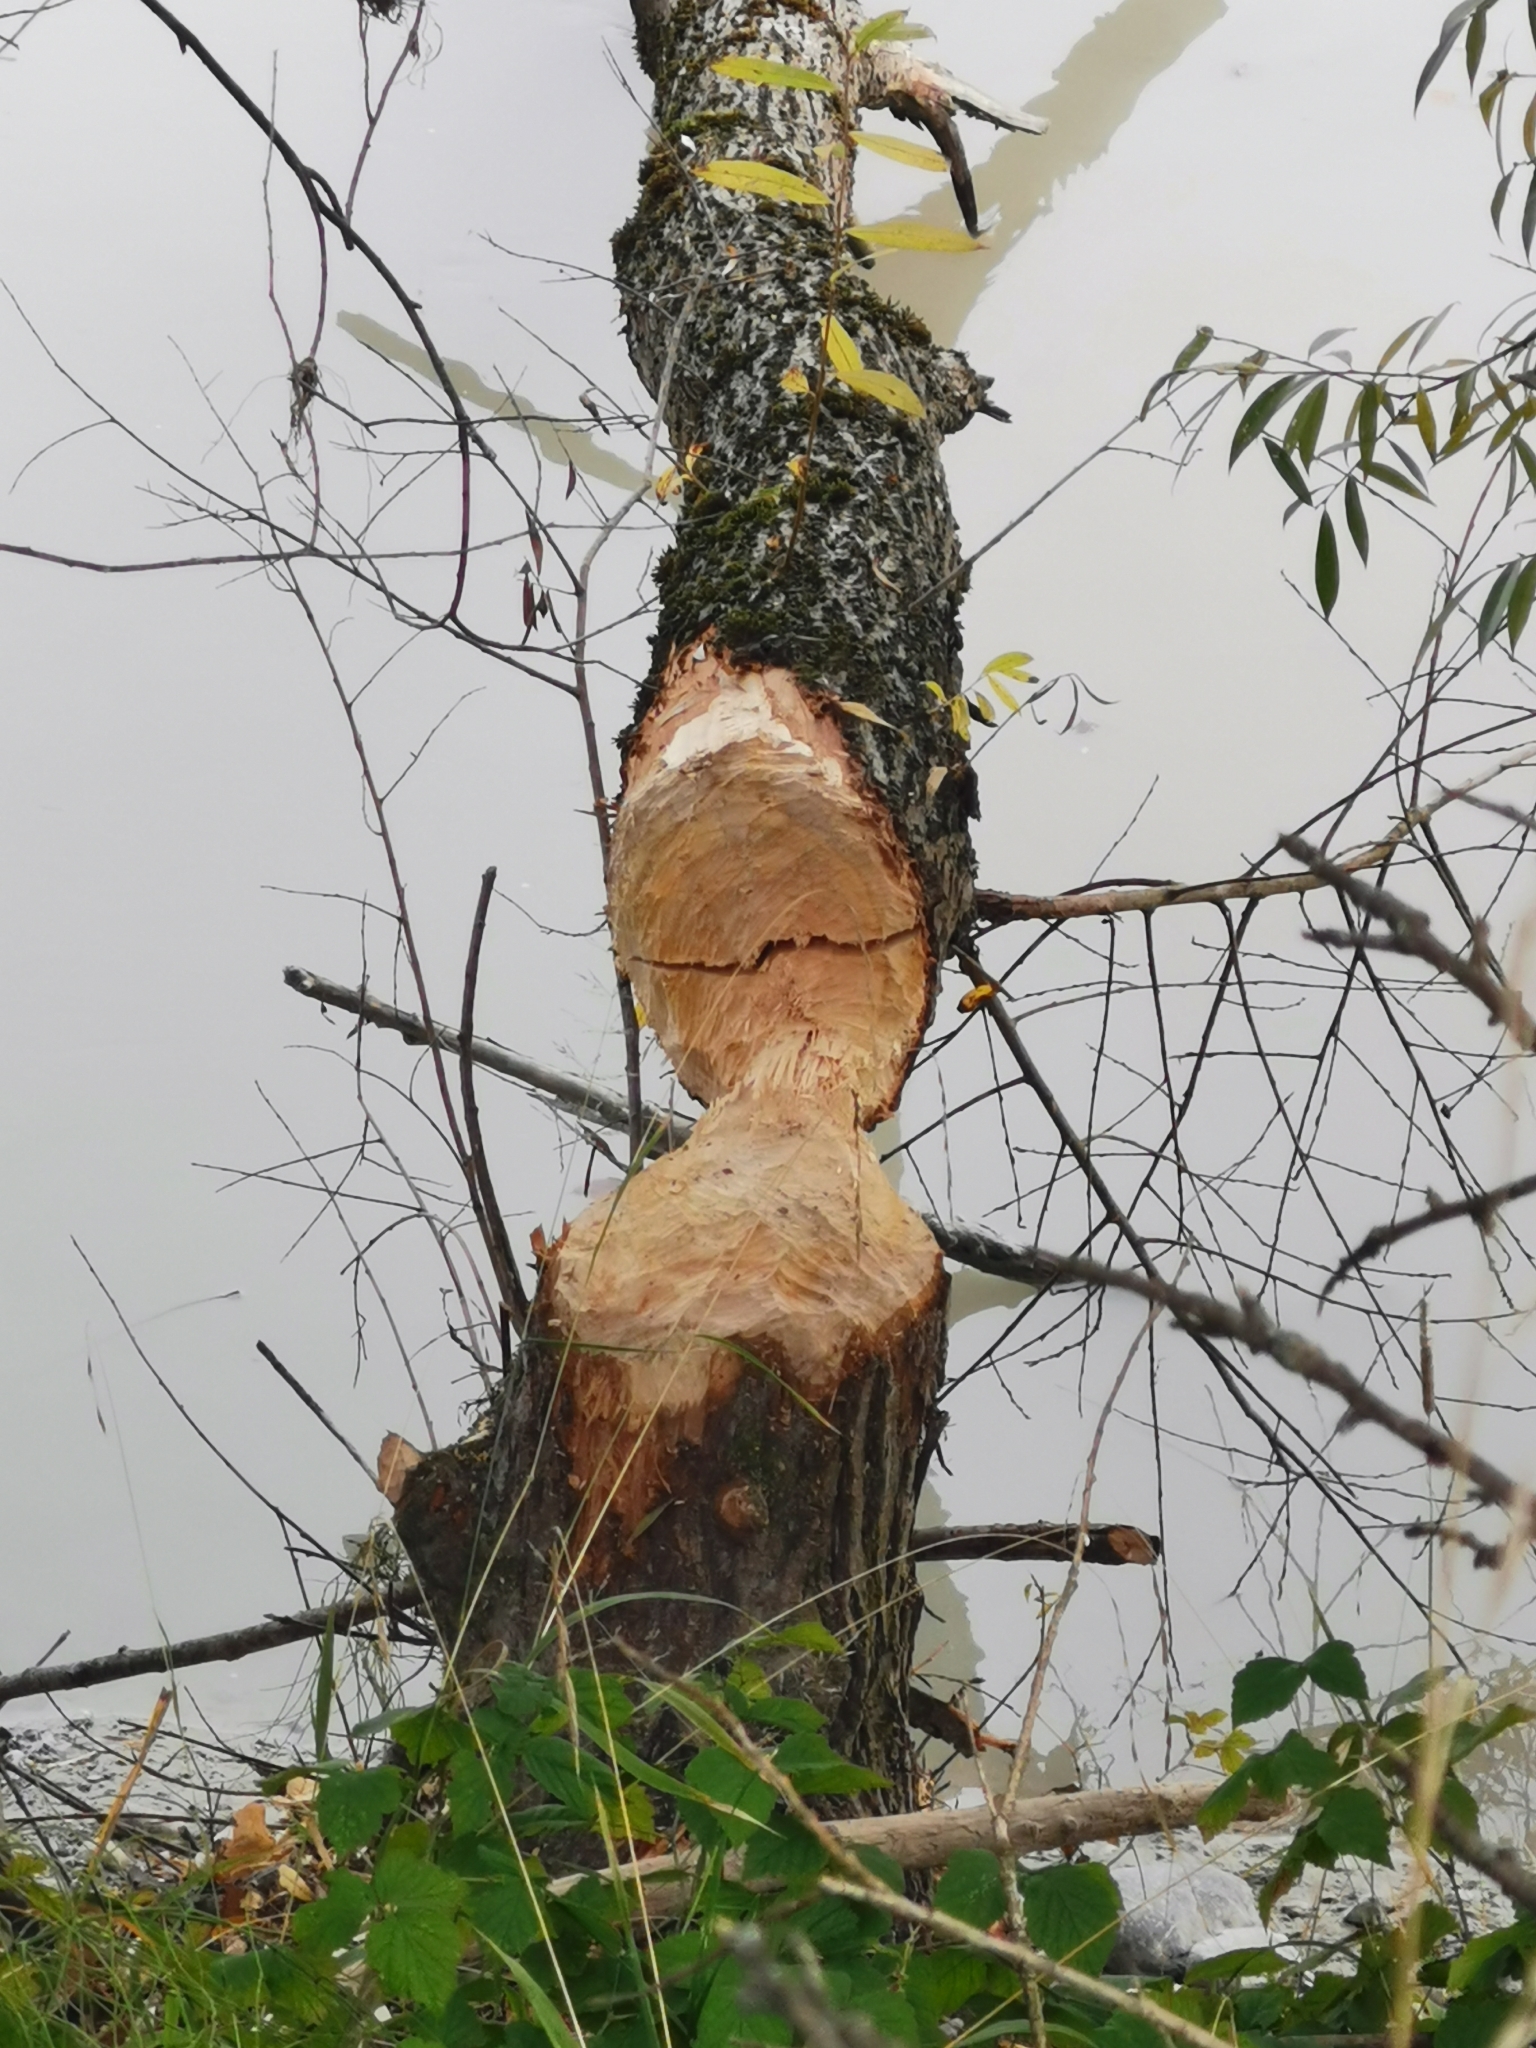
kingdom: Animalia
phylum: Chordata
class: Mammalia
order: Rodentia
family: Castoridae
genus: Castor
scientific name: Castor fiber
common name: Eurasian beaver
